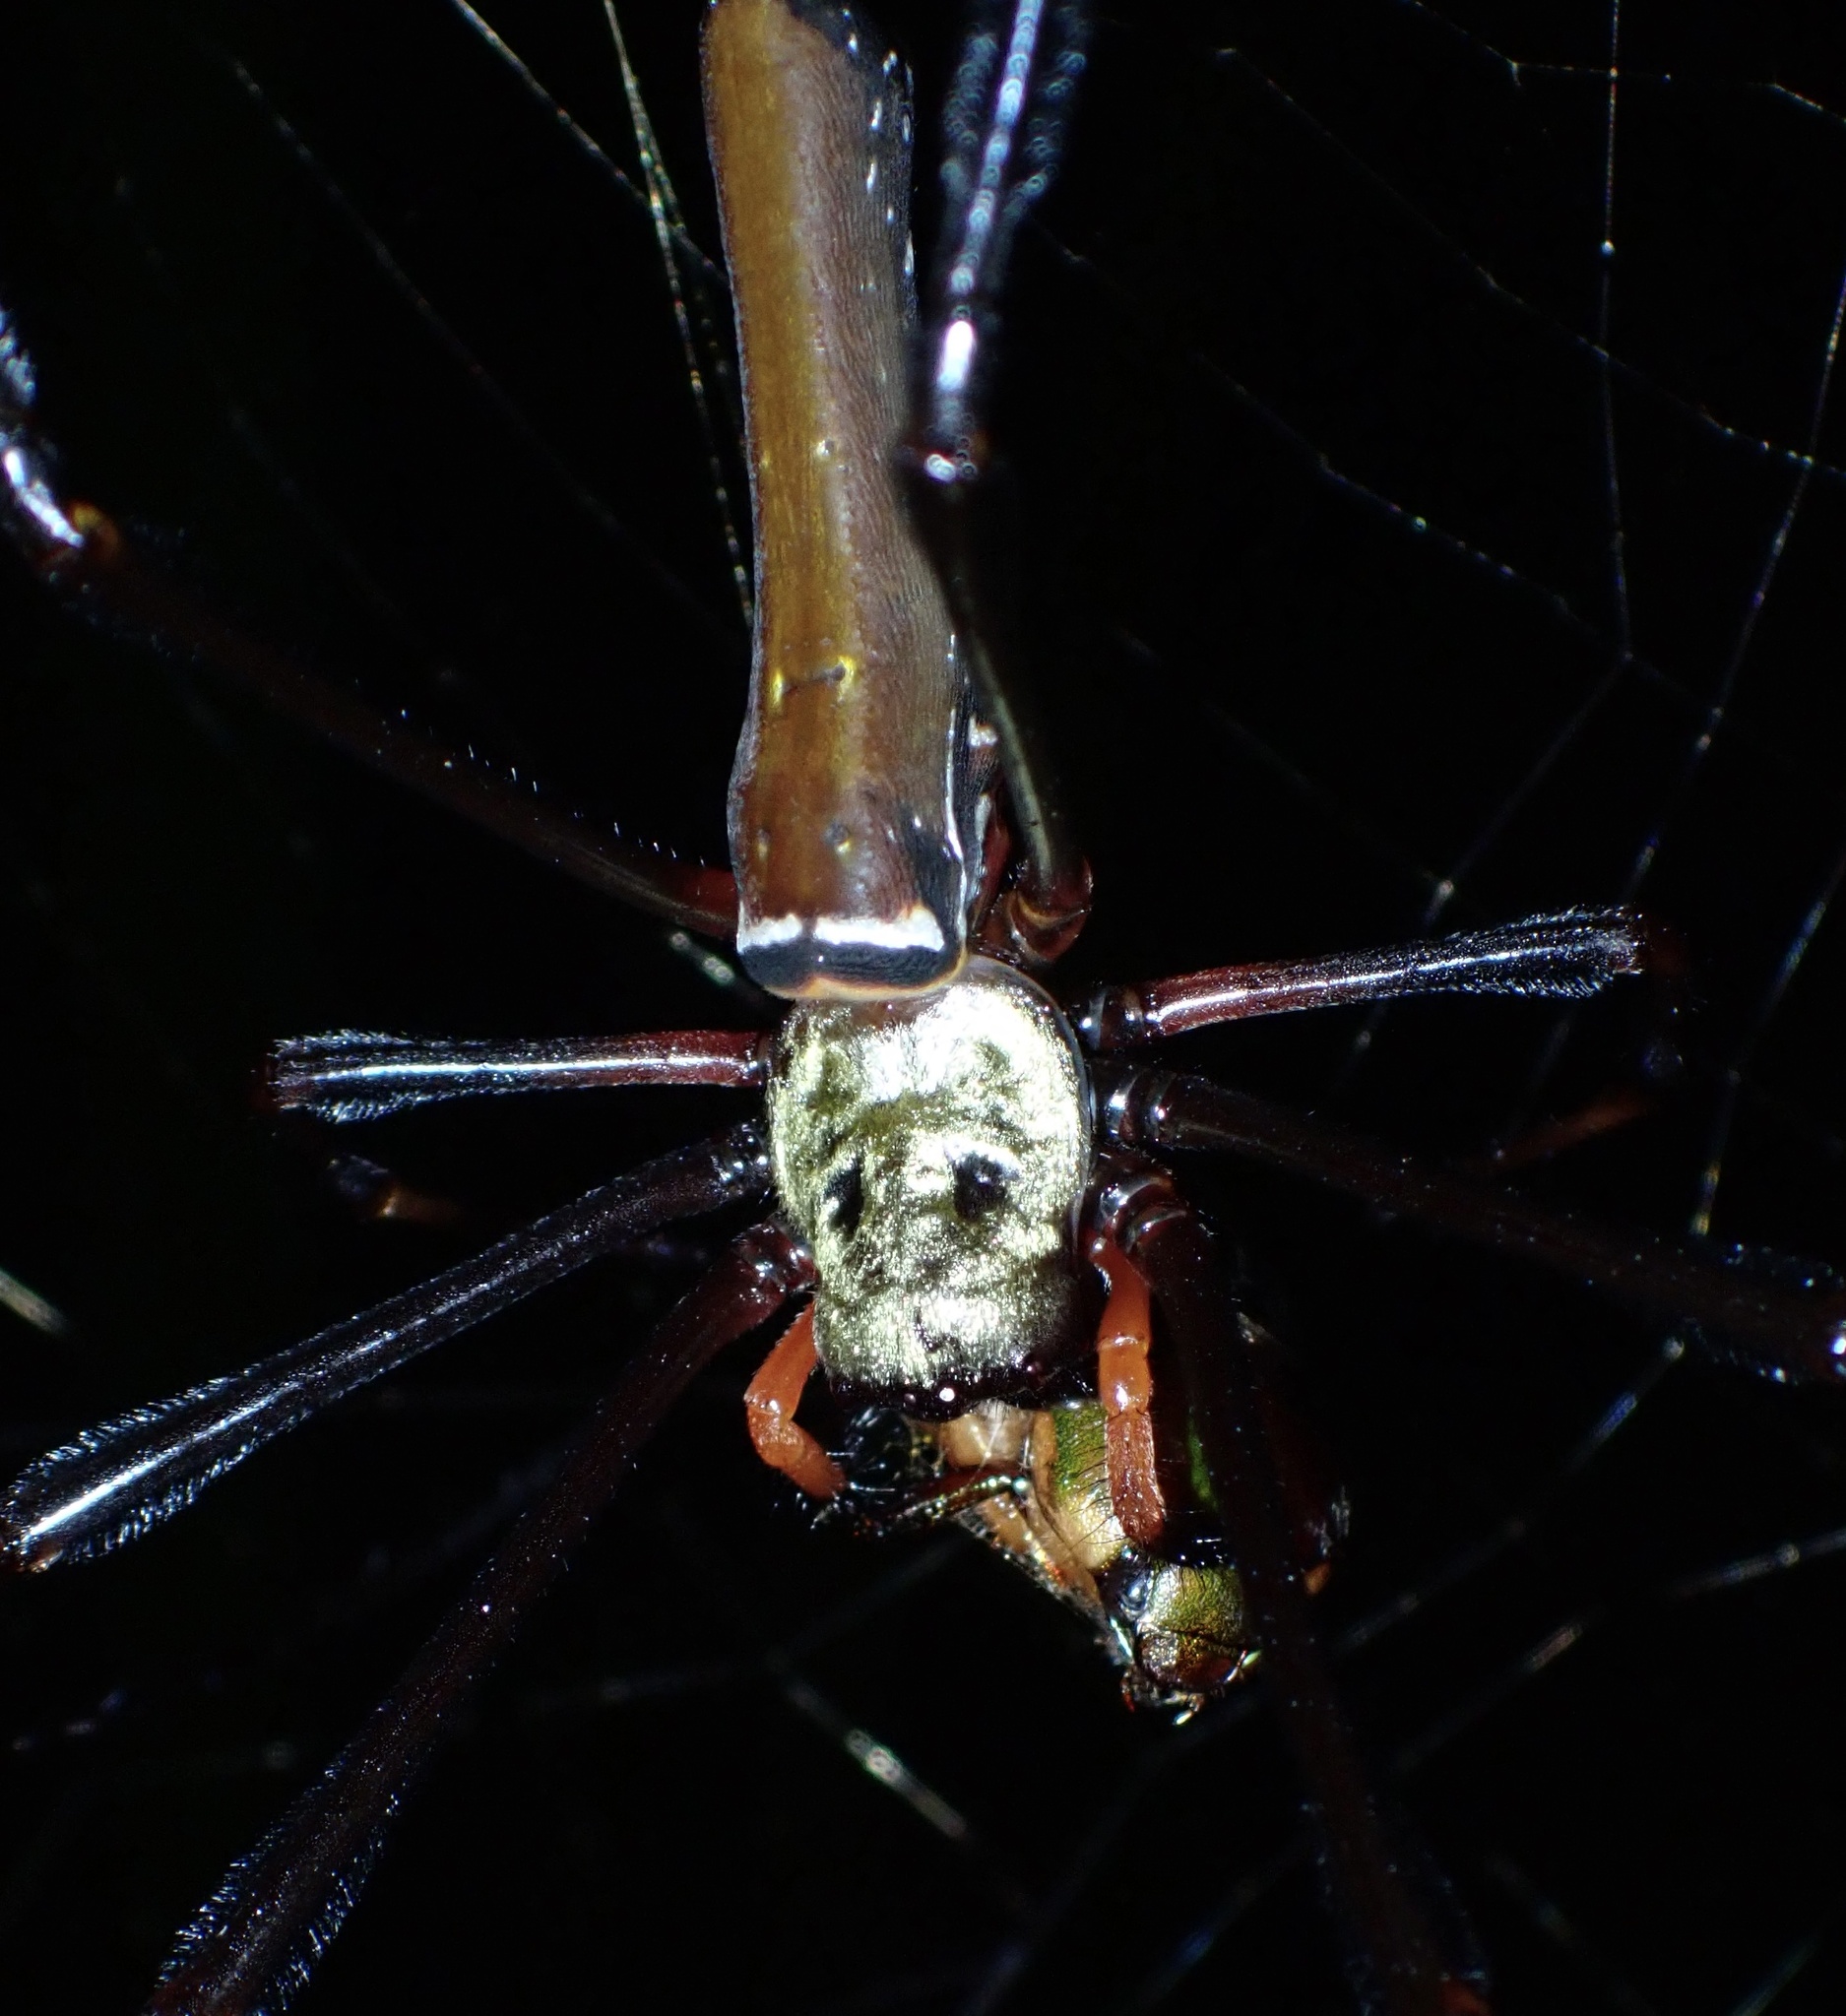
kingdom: Animalia
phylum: Arthropoda
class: Arachnida
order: Araneae
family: Araneidae
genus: Nephila
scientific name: Nephila pilipes
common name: Giant golden orb weaver
